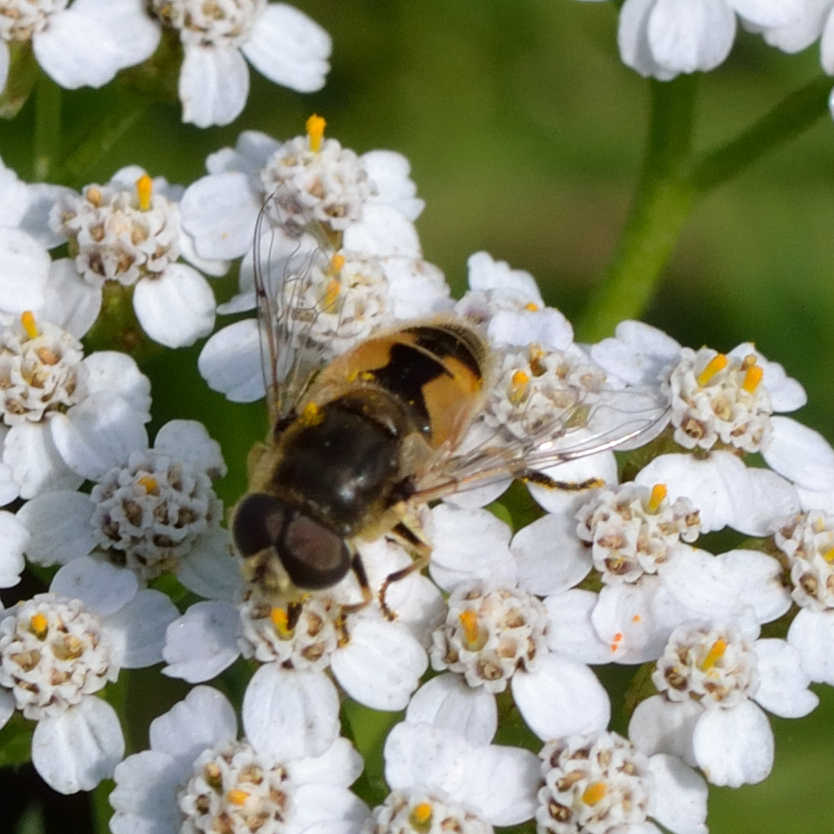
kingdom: Animalia
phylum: Arthropoda
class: Insecta
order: Diptera
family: Syrphidae
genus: Eristalis
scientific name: Eristalis arbustorum
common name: Hover fly
